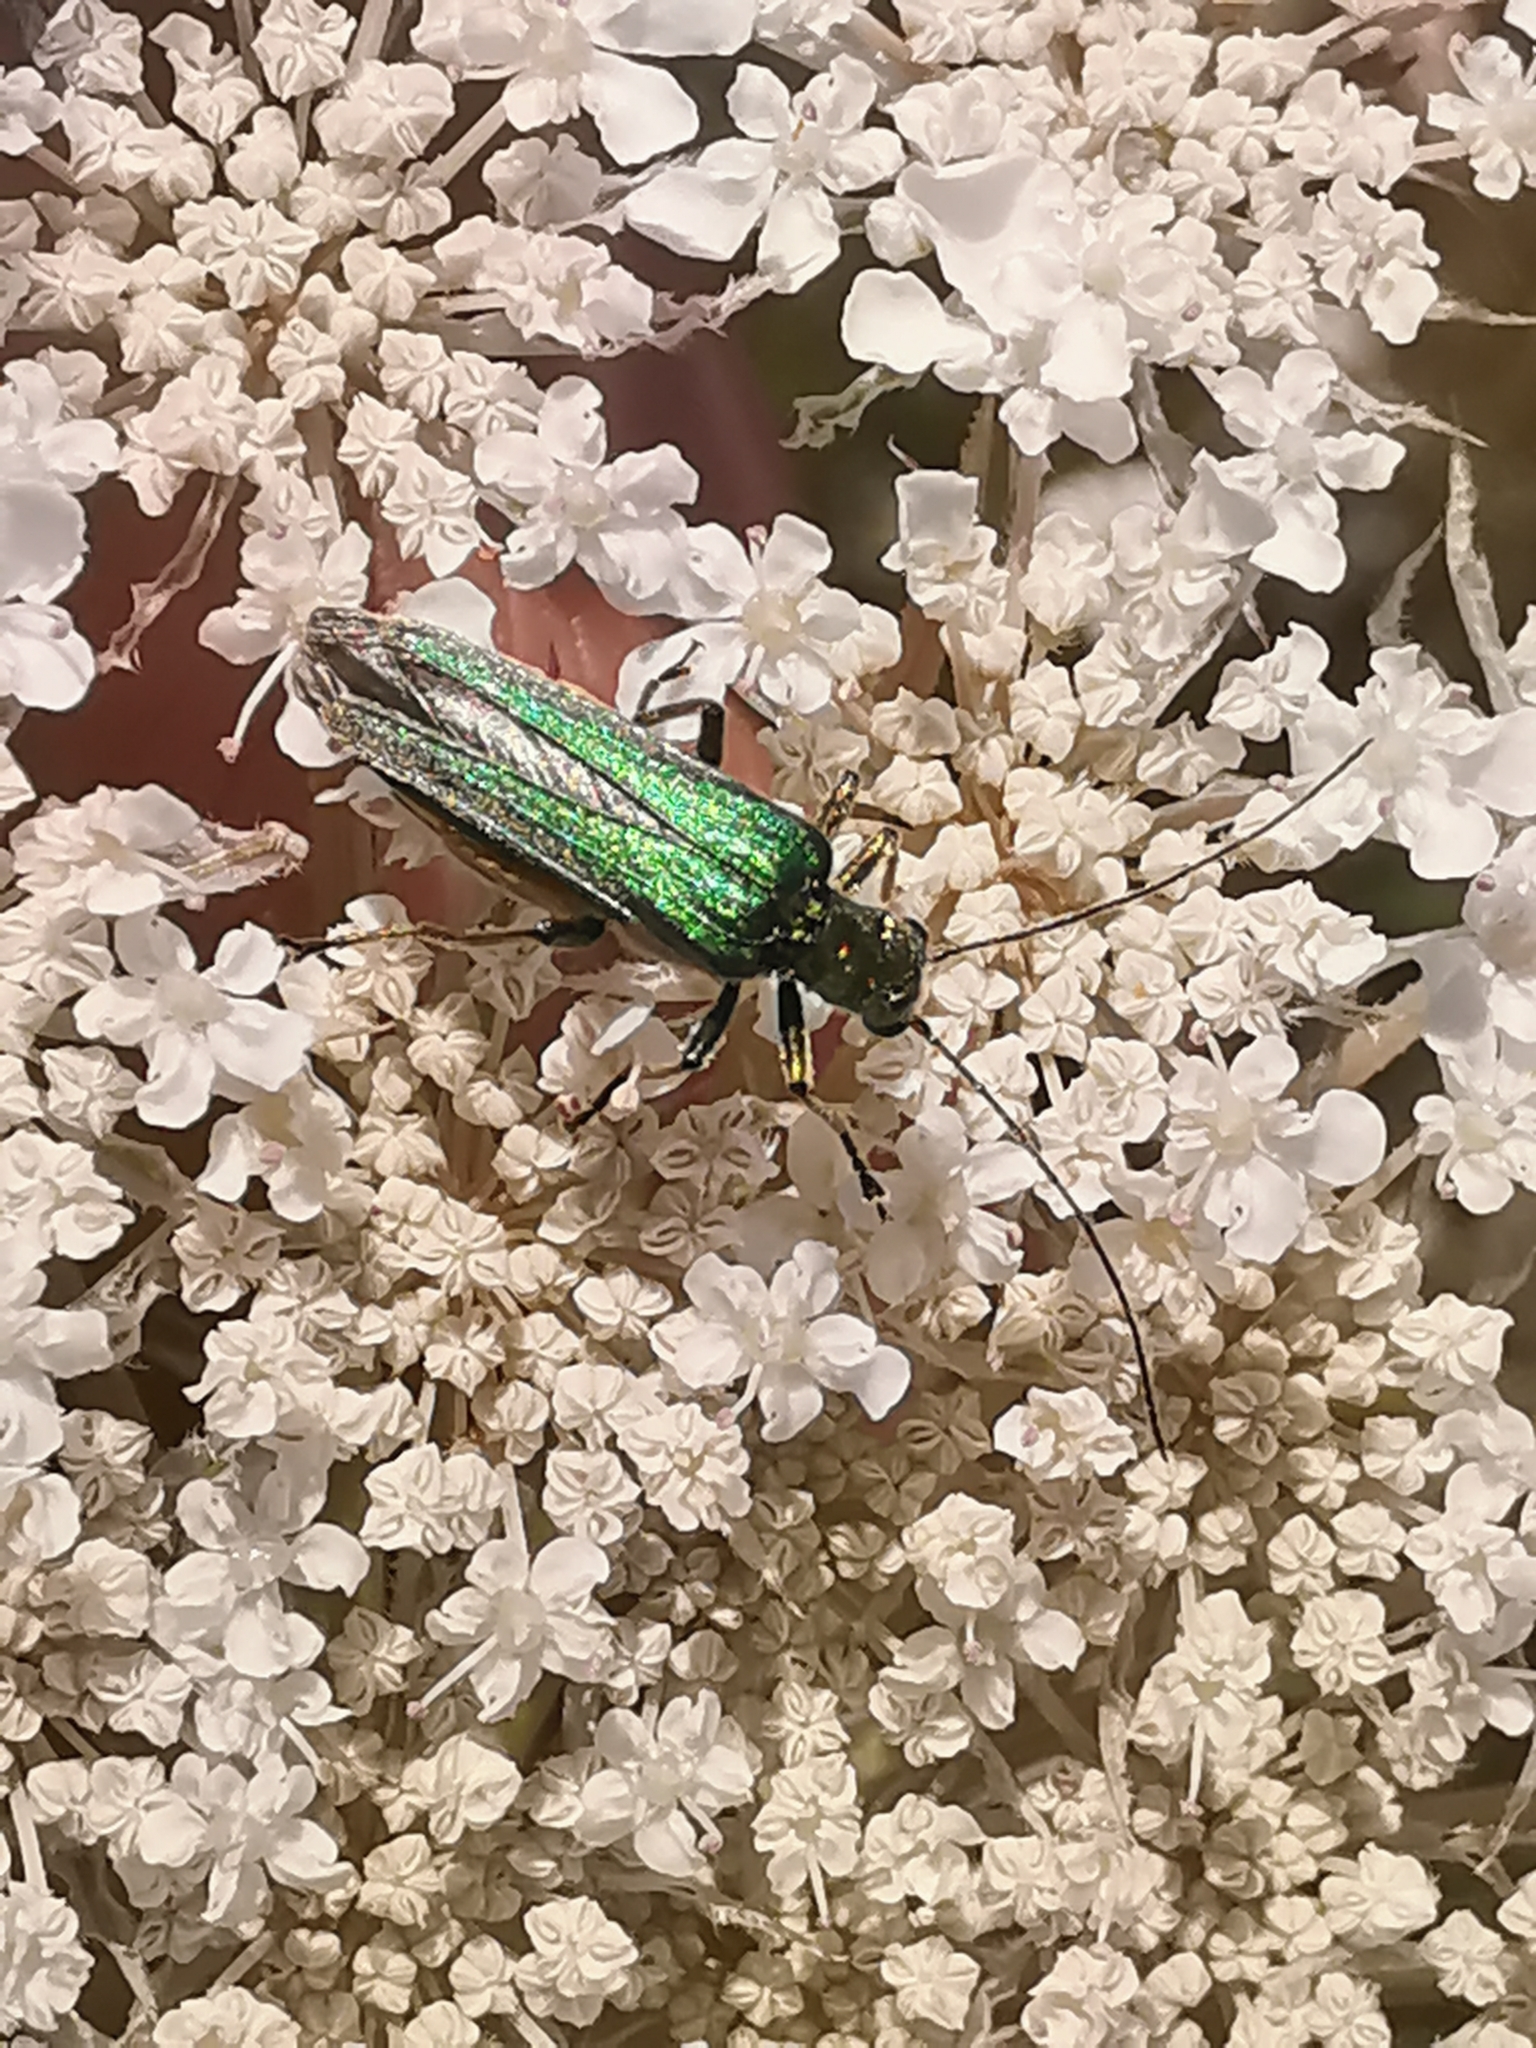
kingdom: Animalia
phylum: Arthropoda
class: Insecta
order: Coleoptera
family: Oedemeridae
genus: Oedemera
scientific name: Oedemera nobilis
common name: Swollen-thighed beetle
